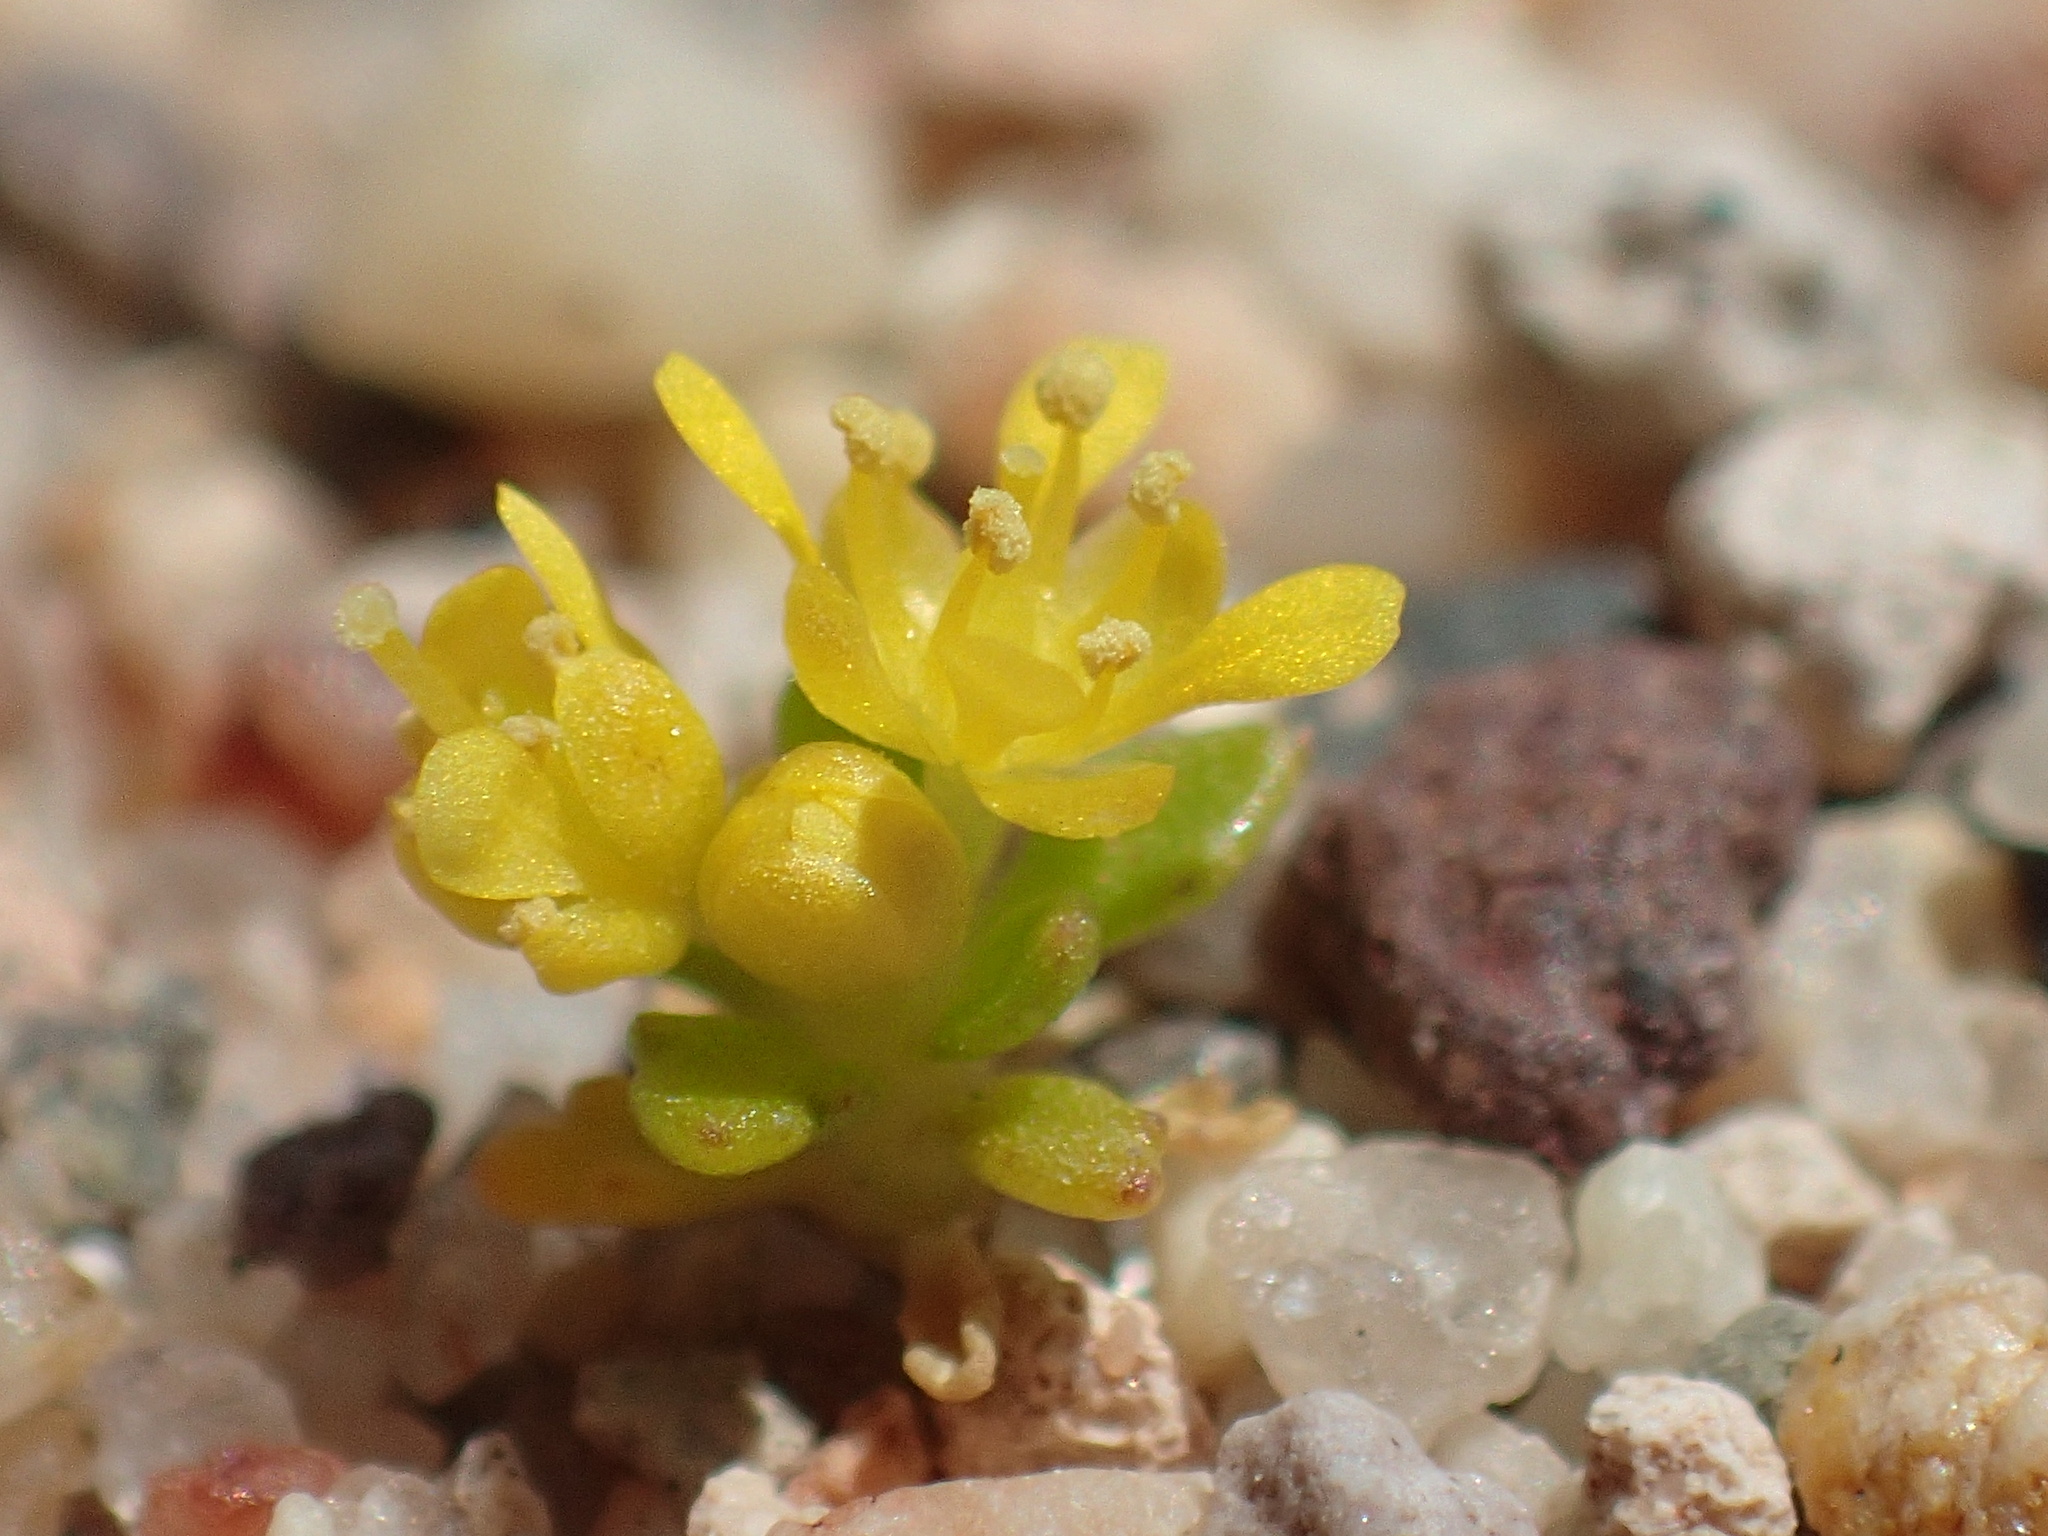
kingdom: Plantae
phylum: Tracheophyta
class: Magnoliopsida
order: Brassicales
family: Brassicaceae
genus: Lepidium
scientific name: Lepidium flavum
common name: Yellow pepperwort
